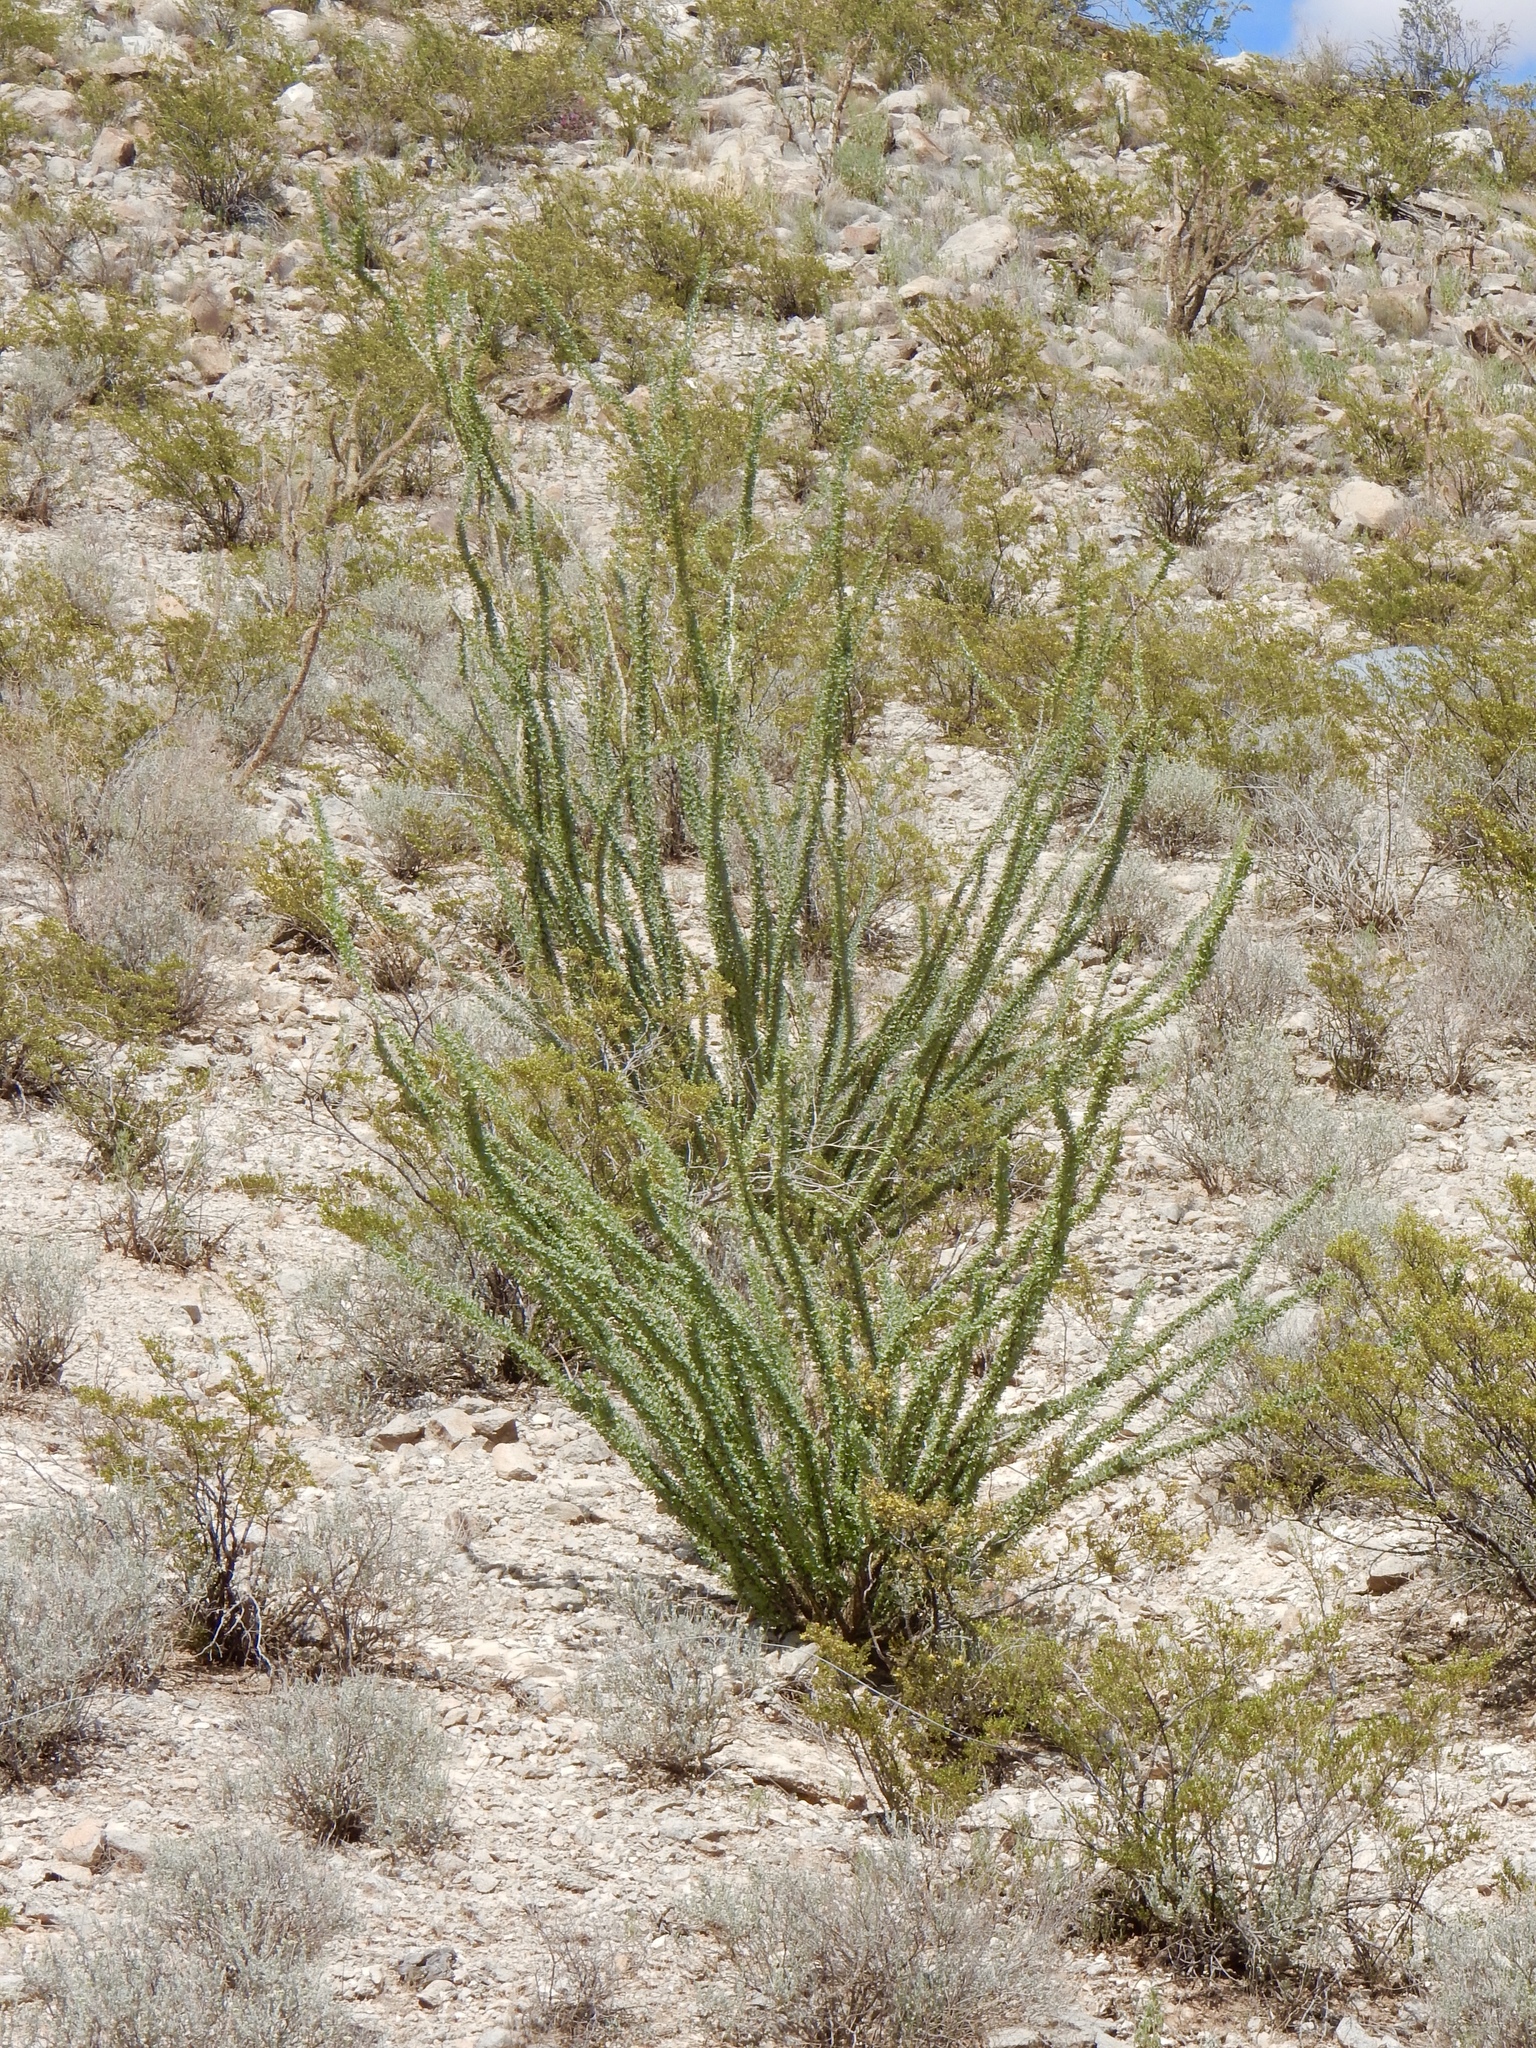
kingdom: Plantae
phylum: Tracheophyta
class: Magnoliopsida
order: Ericales
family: Fouquieriaceae
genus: Fouquieria
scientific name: Fouquieria splendens
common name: Vine-cactus
